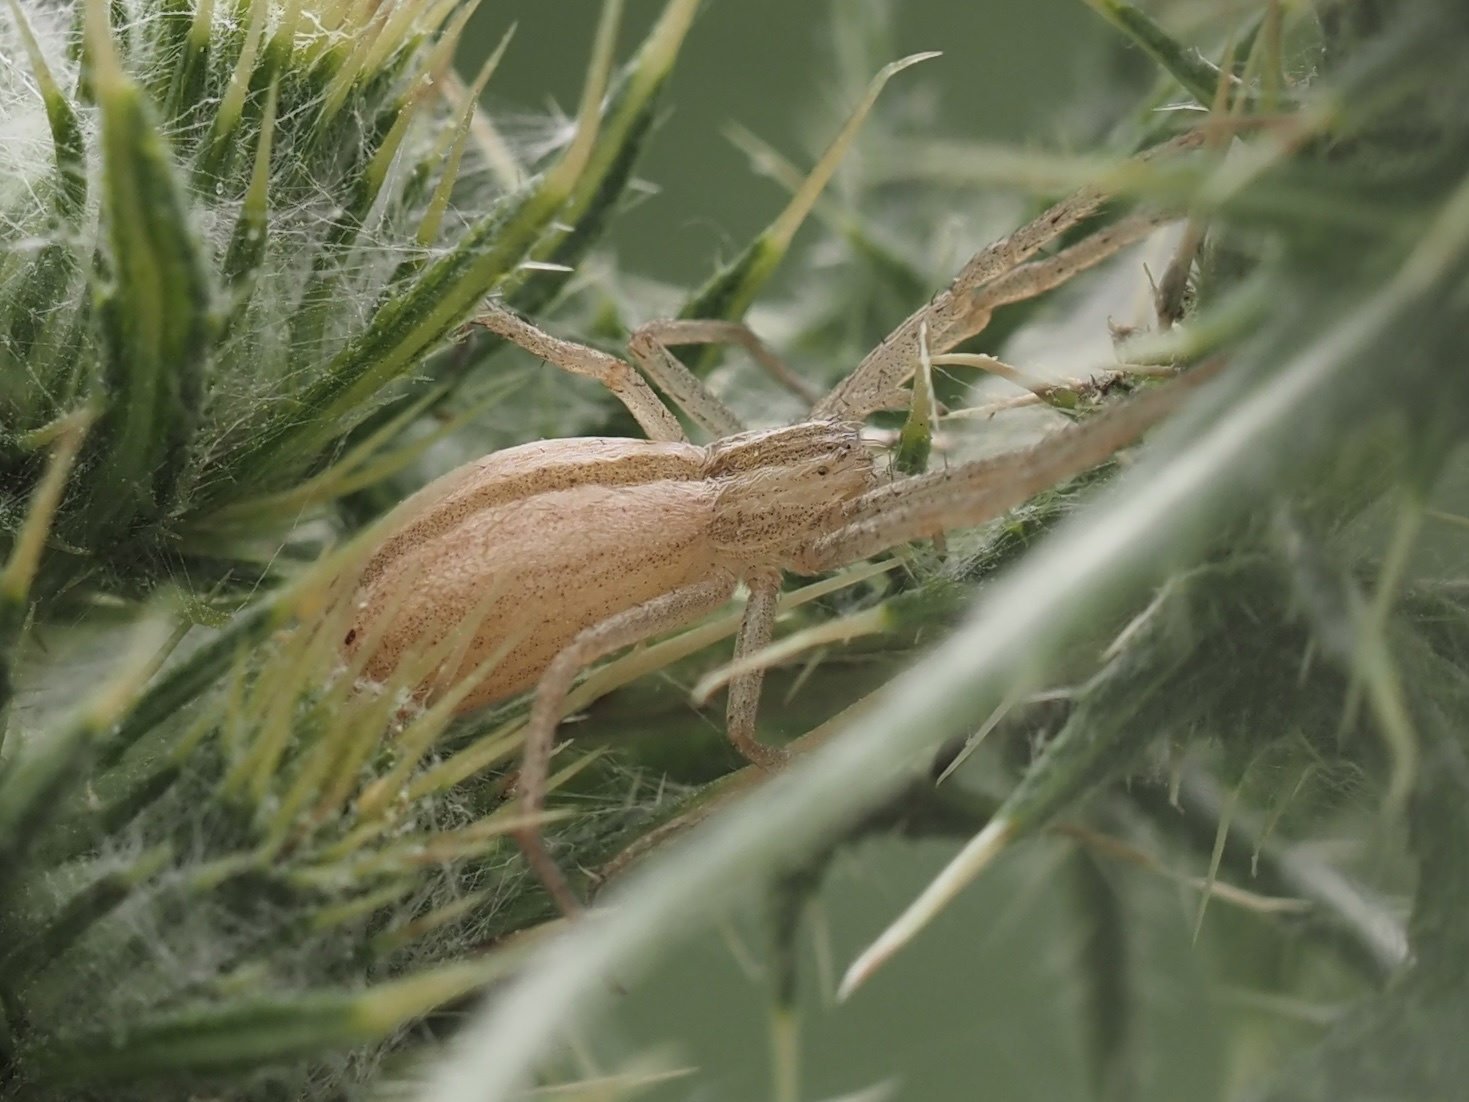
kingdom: Animalia
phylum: Arthropoda
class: Arachnida
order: Araneae
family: Philodromidae
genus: Tibellus
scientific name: Tibellus oblongus
